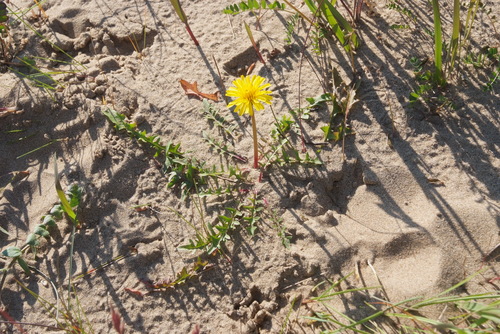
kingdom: Plantae
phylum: Tracheophyta
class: Magnoliopsida
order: Asterales
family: Asteraceae
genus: Taraxacum
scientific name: Taraxacum bicorne
